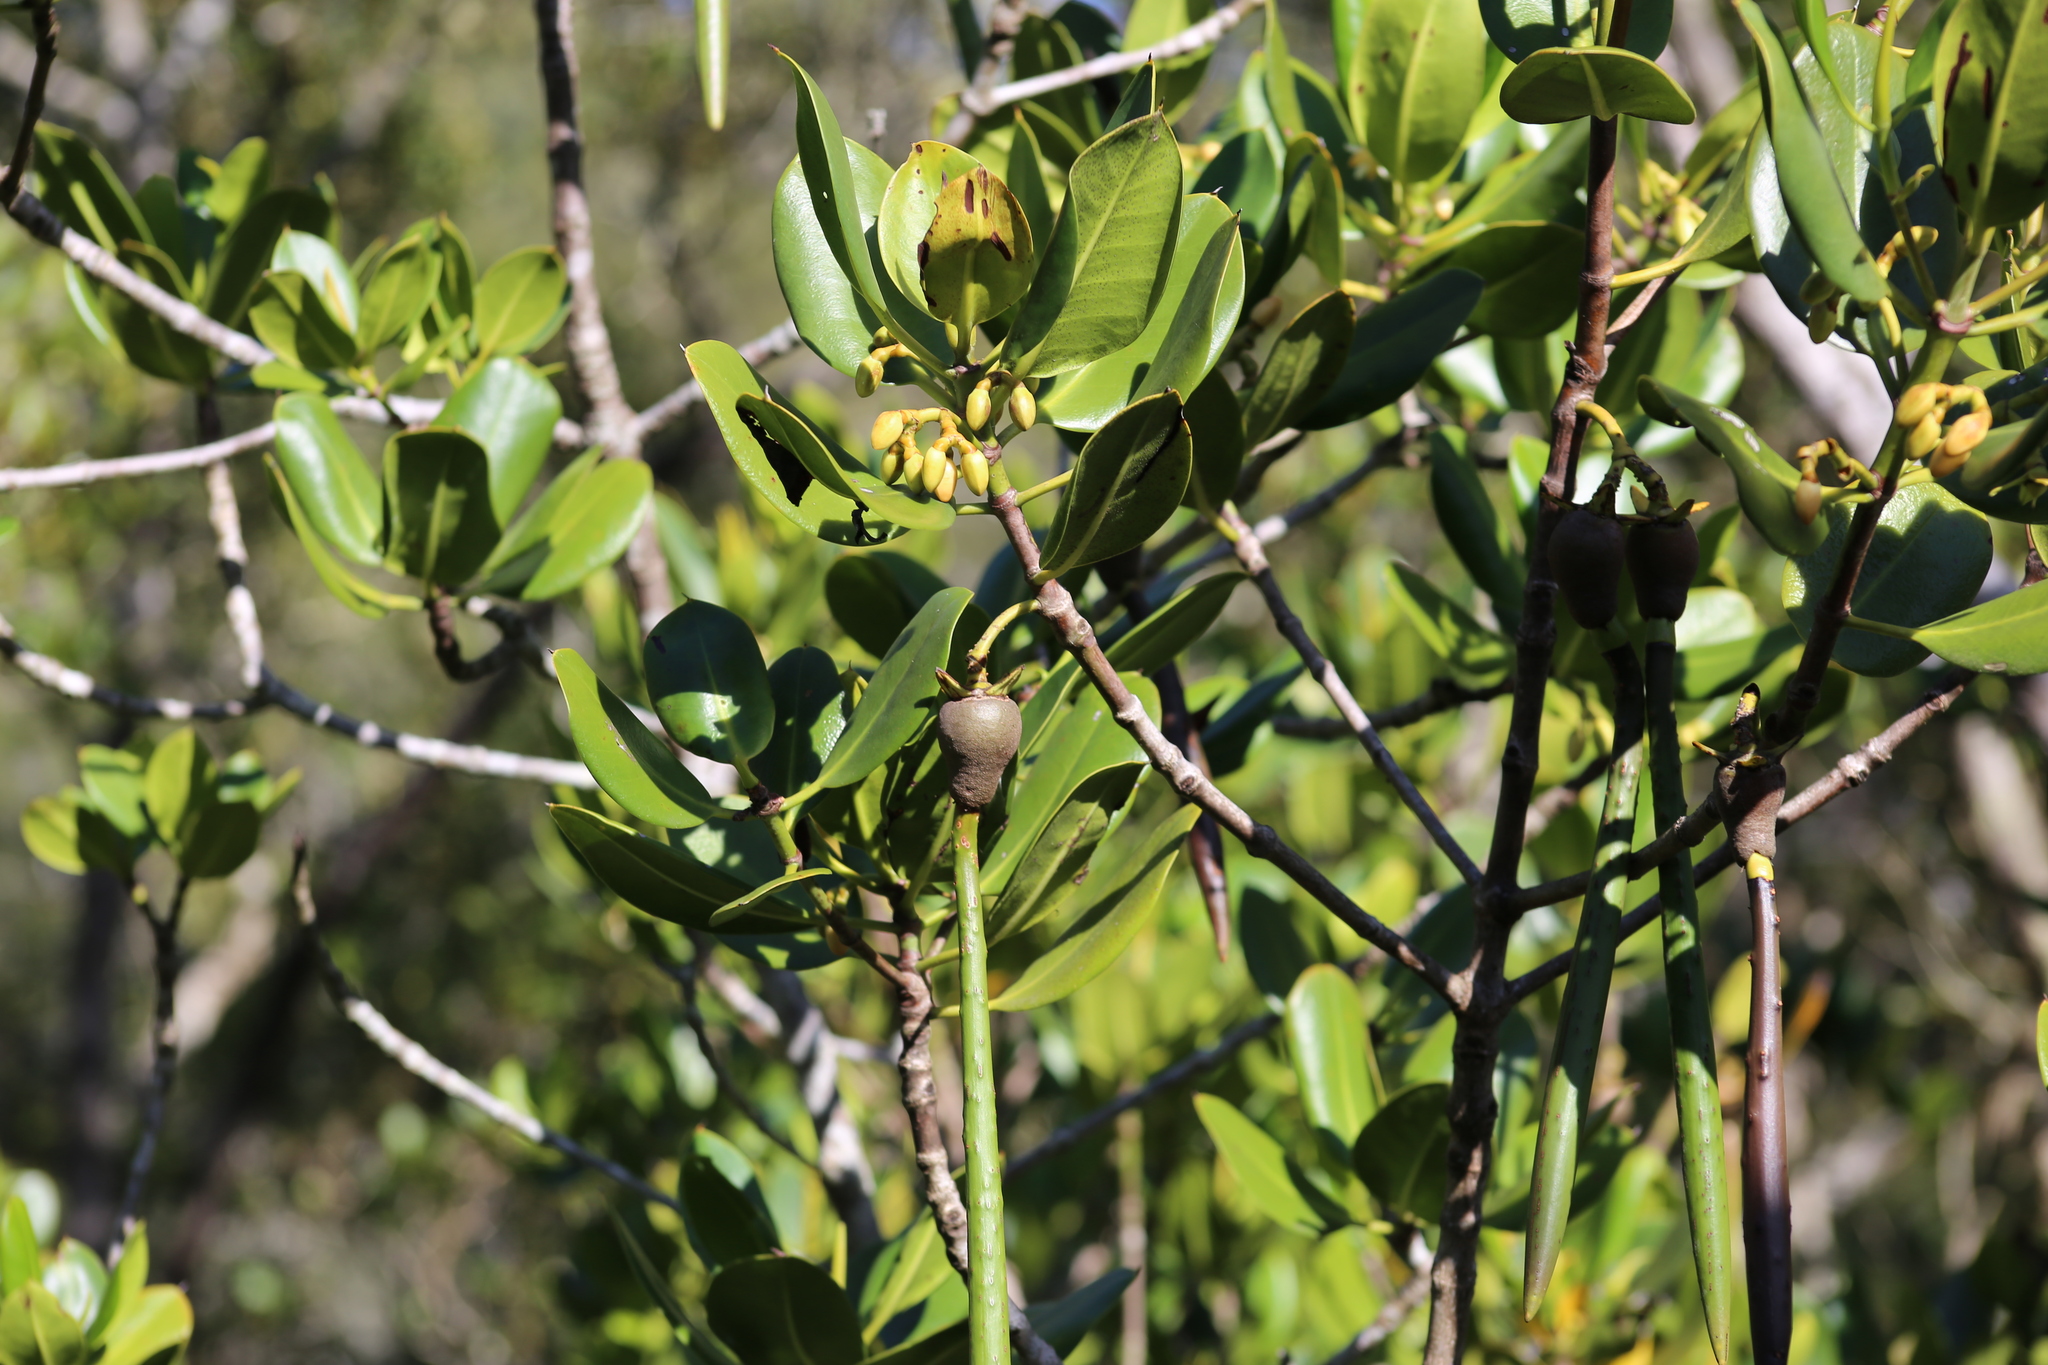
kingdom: Plantae
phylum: Tracheophyta
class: Magnoliopsida
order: Malpighiales
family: Rhizophoraceae
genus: Rhizophora
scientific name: Rhizophora stylosa
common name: Red mangrove
